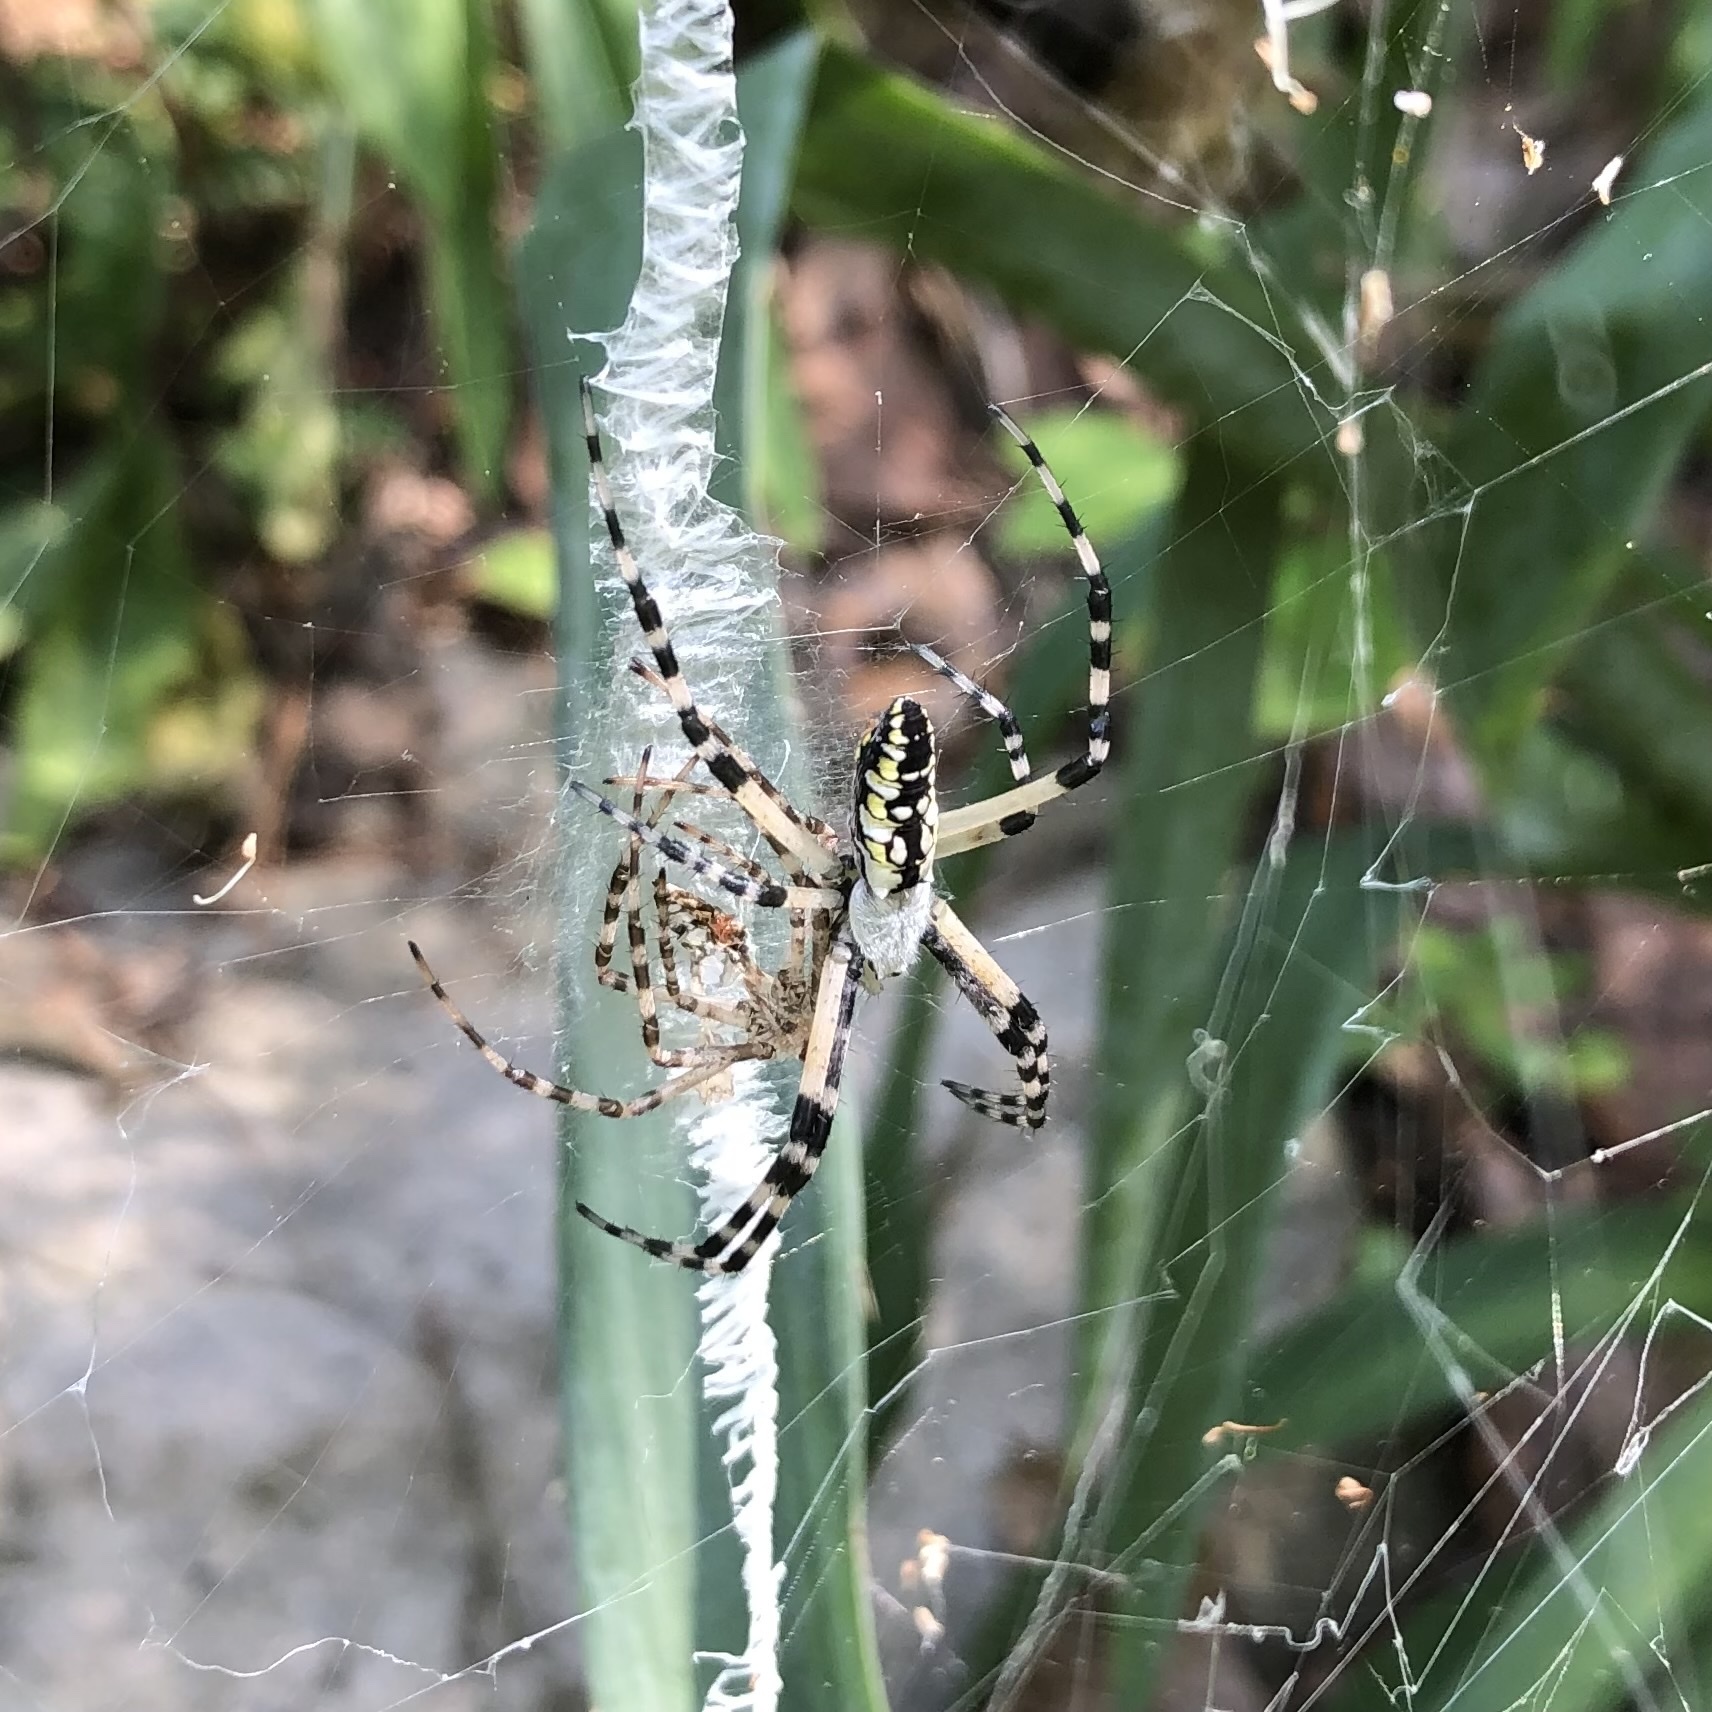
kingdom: Animalia
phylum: Arthropoda
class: Arachnida
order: Araneae
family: Araneidae
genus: Argiope
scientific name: Argiope aurantia
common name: Orb weavers
